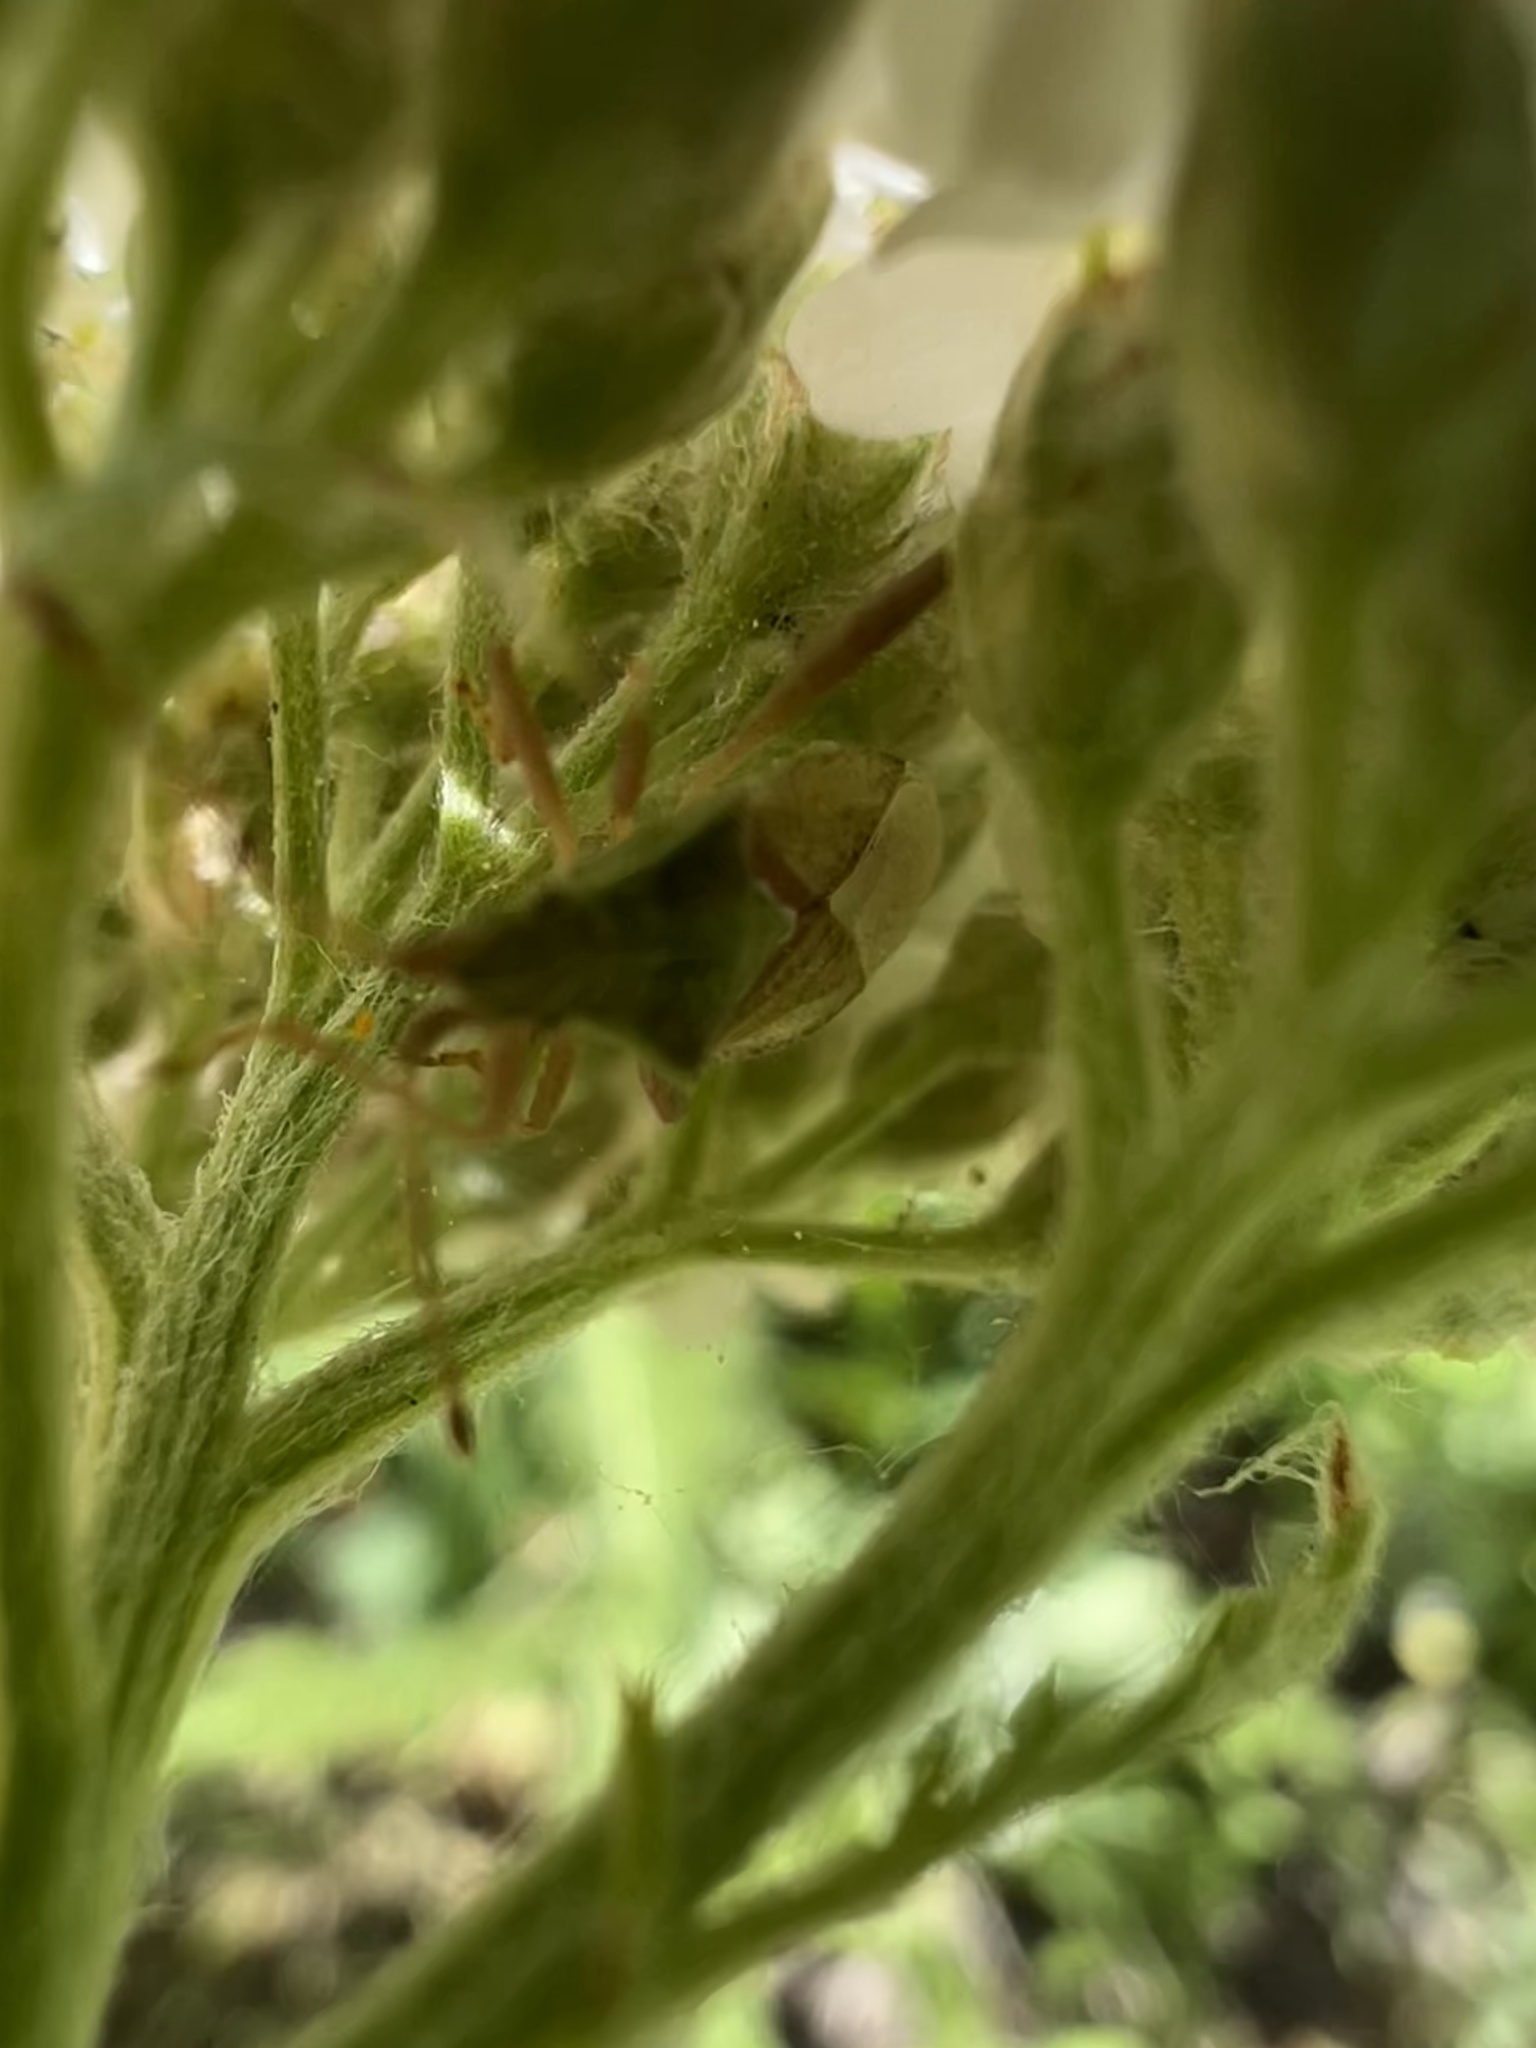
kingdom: Animalia
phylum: Arthropoda
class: Insecta
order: Hemiptera
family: Rhopalidae
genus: Harmostes
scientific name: Harmostes reflexulus
